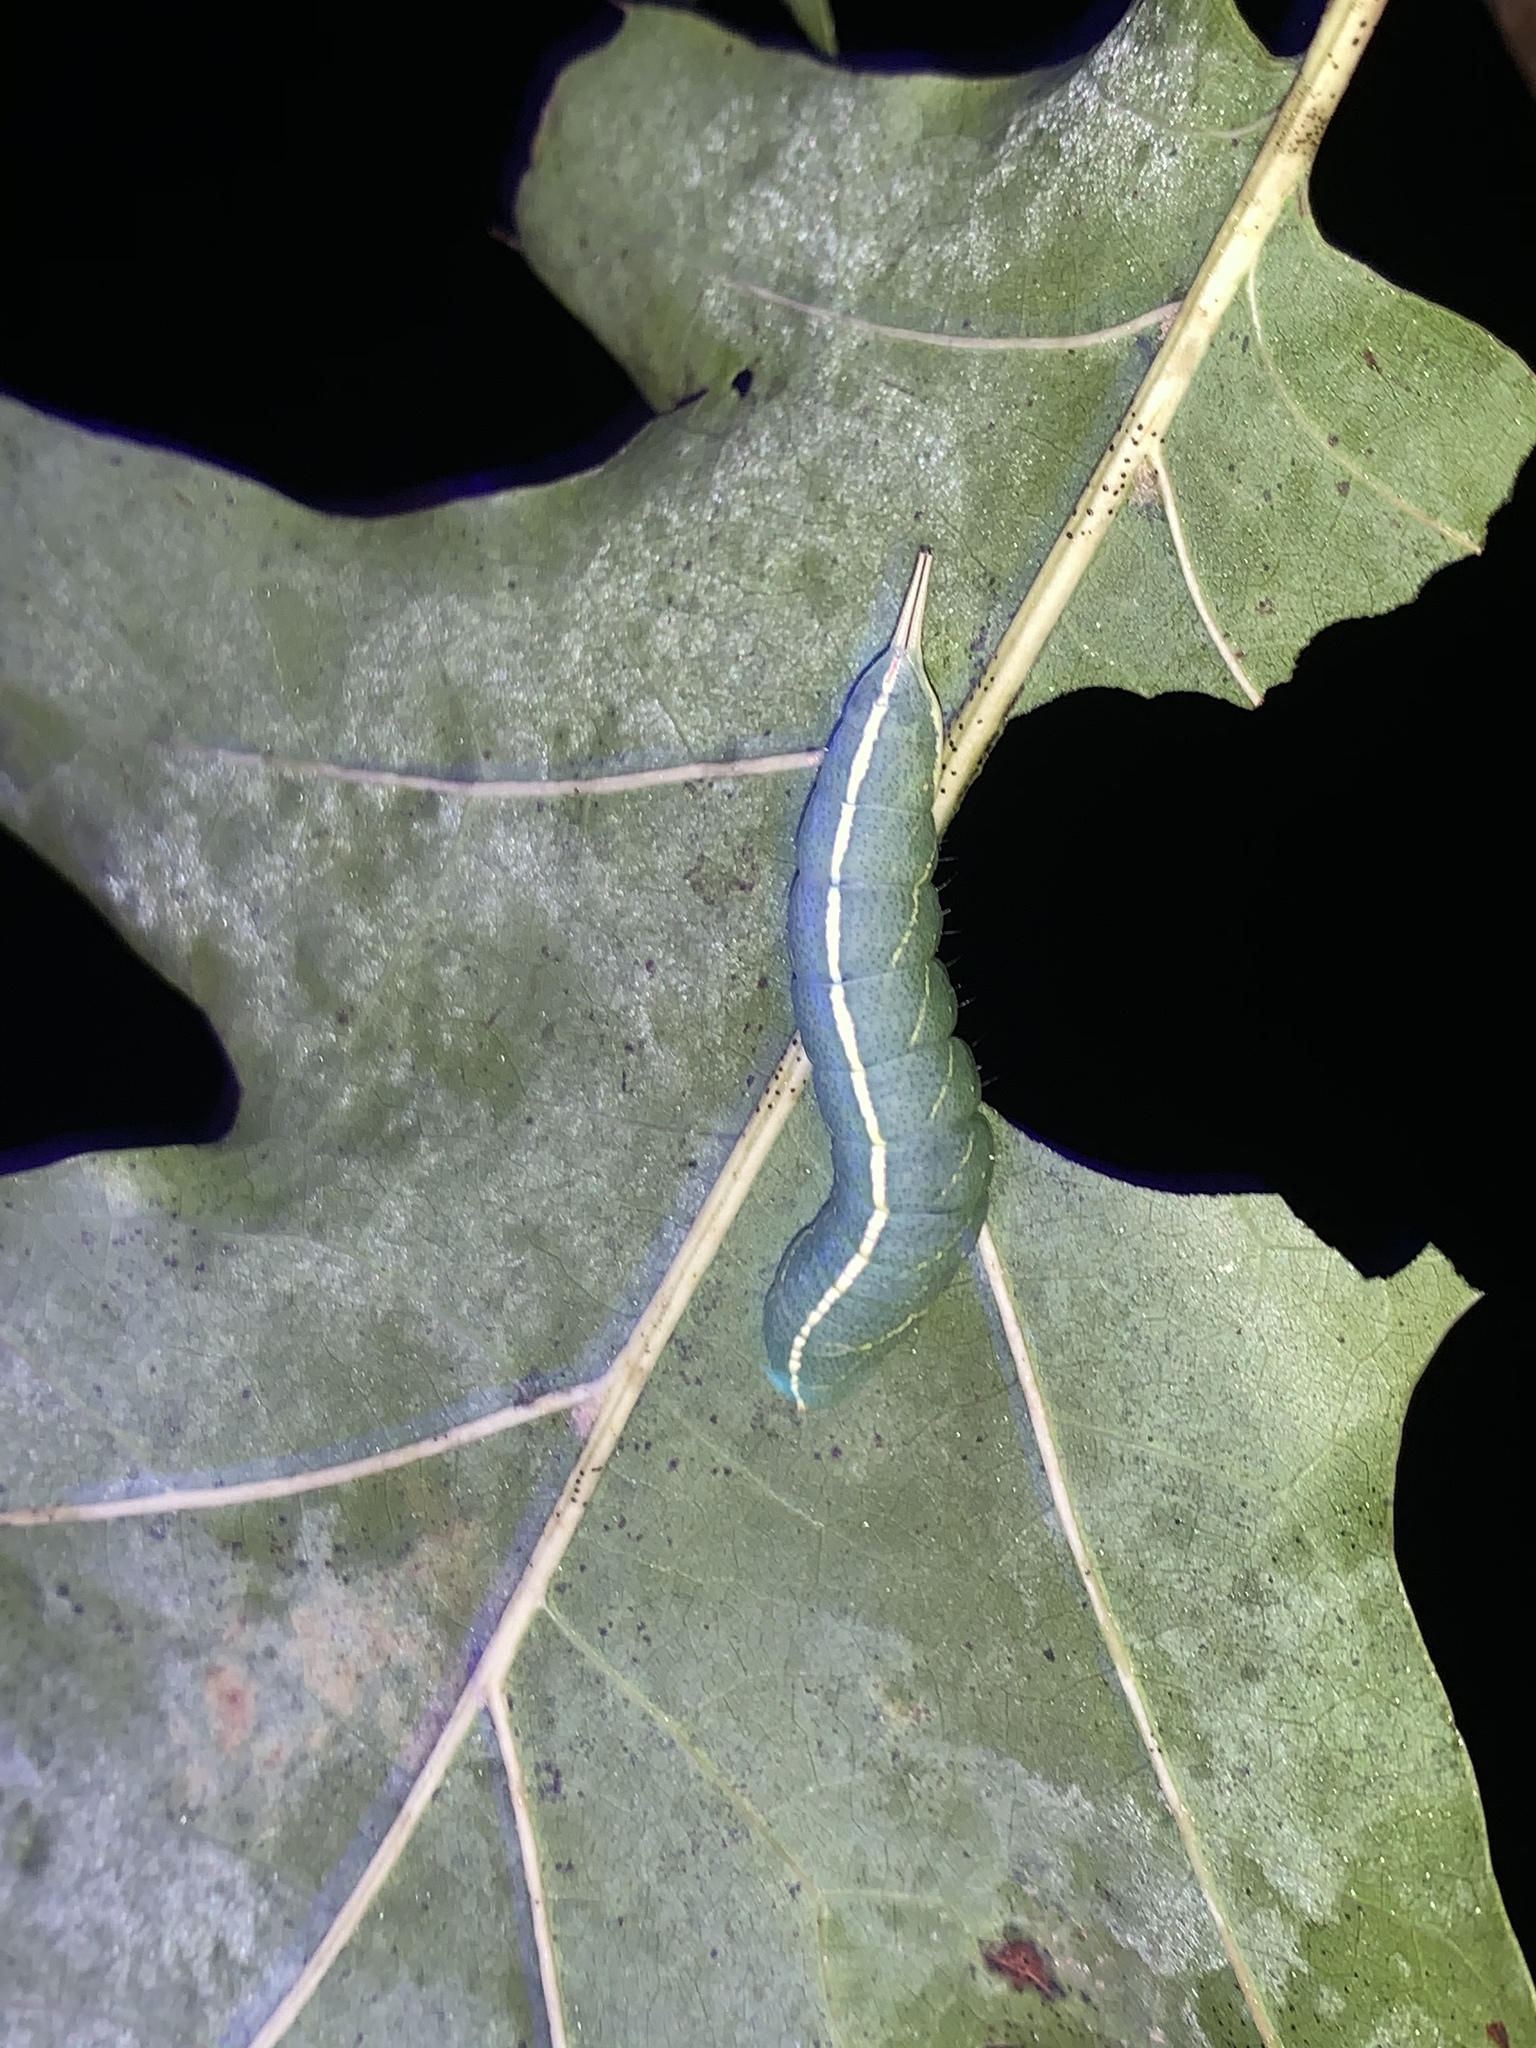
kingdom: Animalia
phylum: Arthropoda
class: Insecta
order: Lepidoptera
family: Notodontidae
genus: Macrurocampa
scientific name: Macrurocampa marthesia
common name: Mottled prominent
